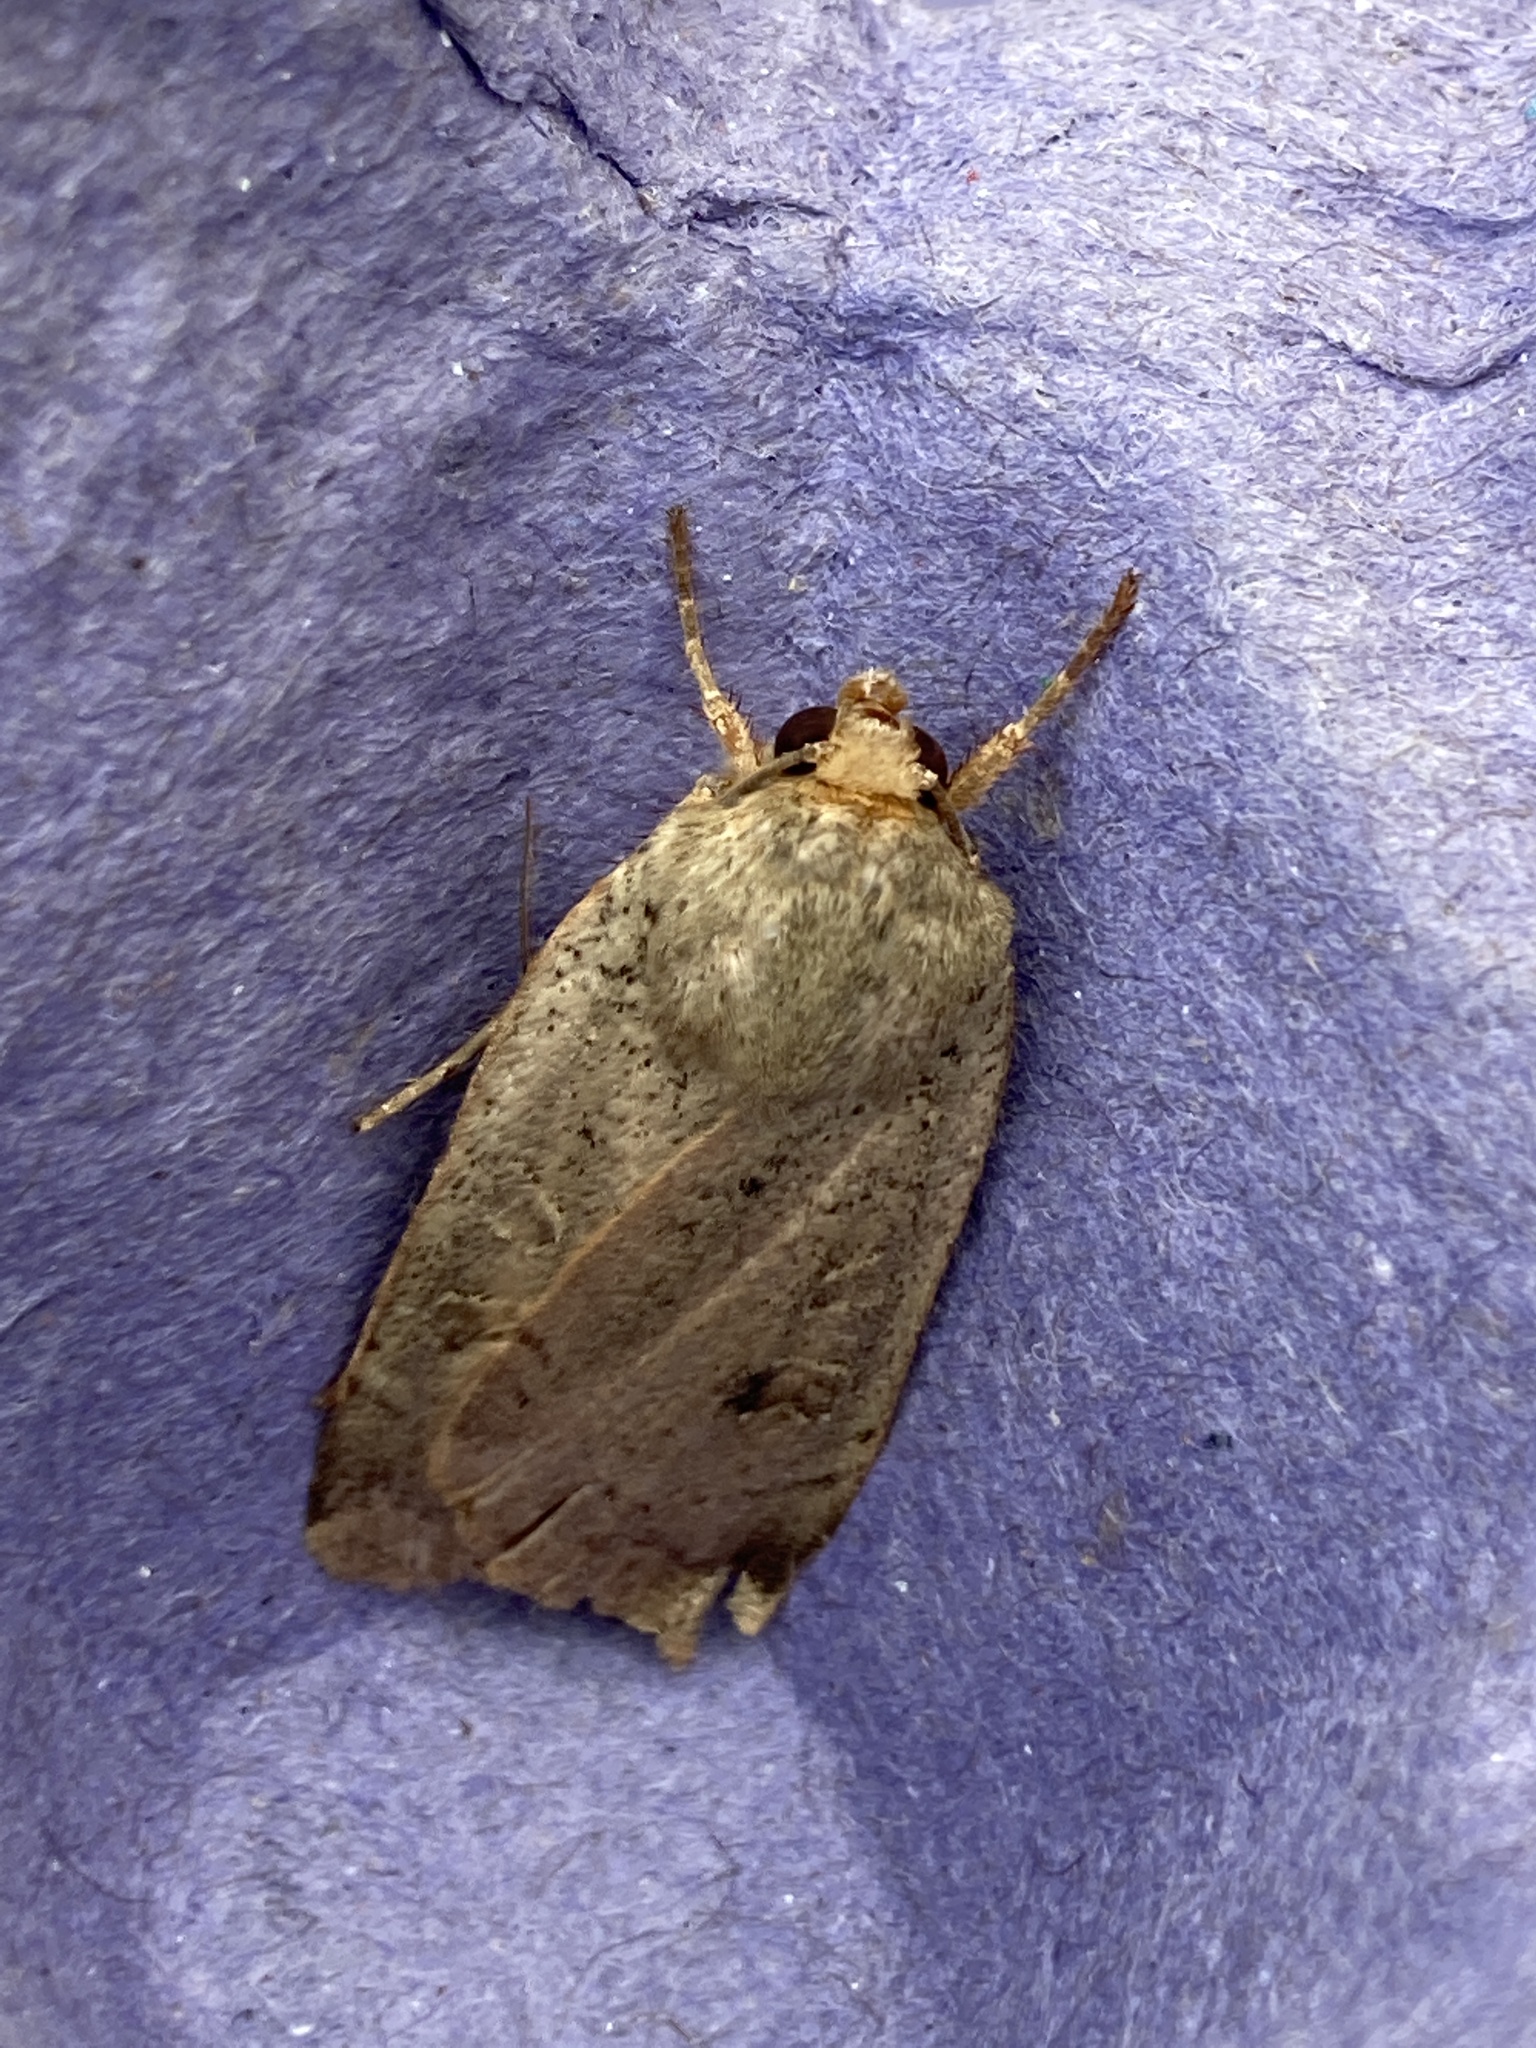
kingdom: Animalia
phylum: Arthropoda
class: Insecta
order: Lepidoptera
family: Noctuidae
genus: Noctua
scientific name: Noctua comes
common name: Lesser yellow underwing
